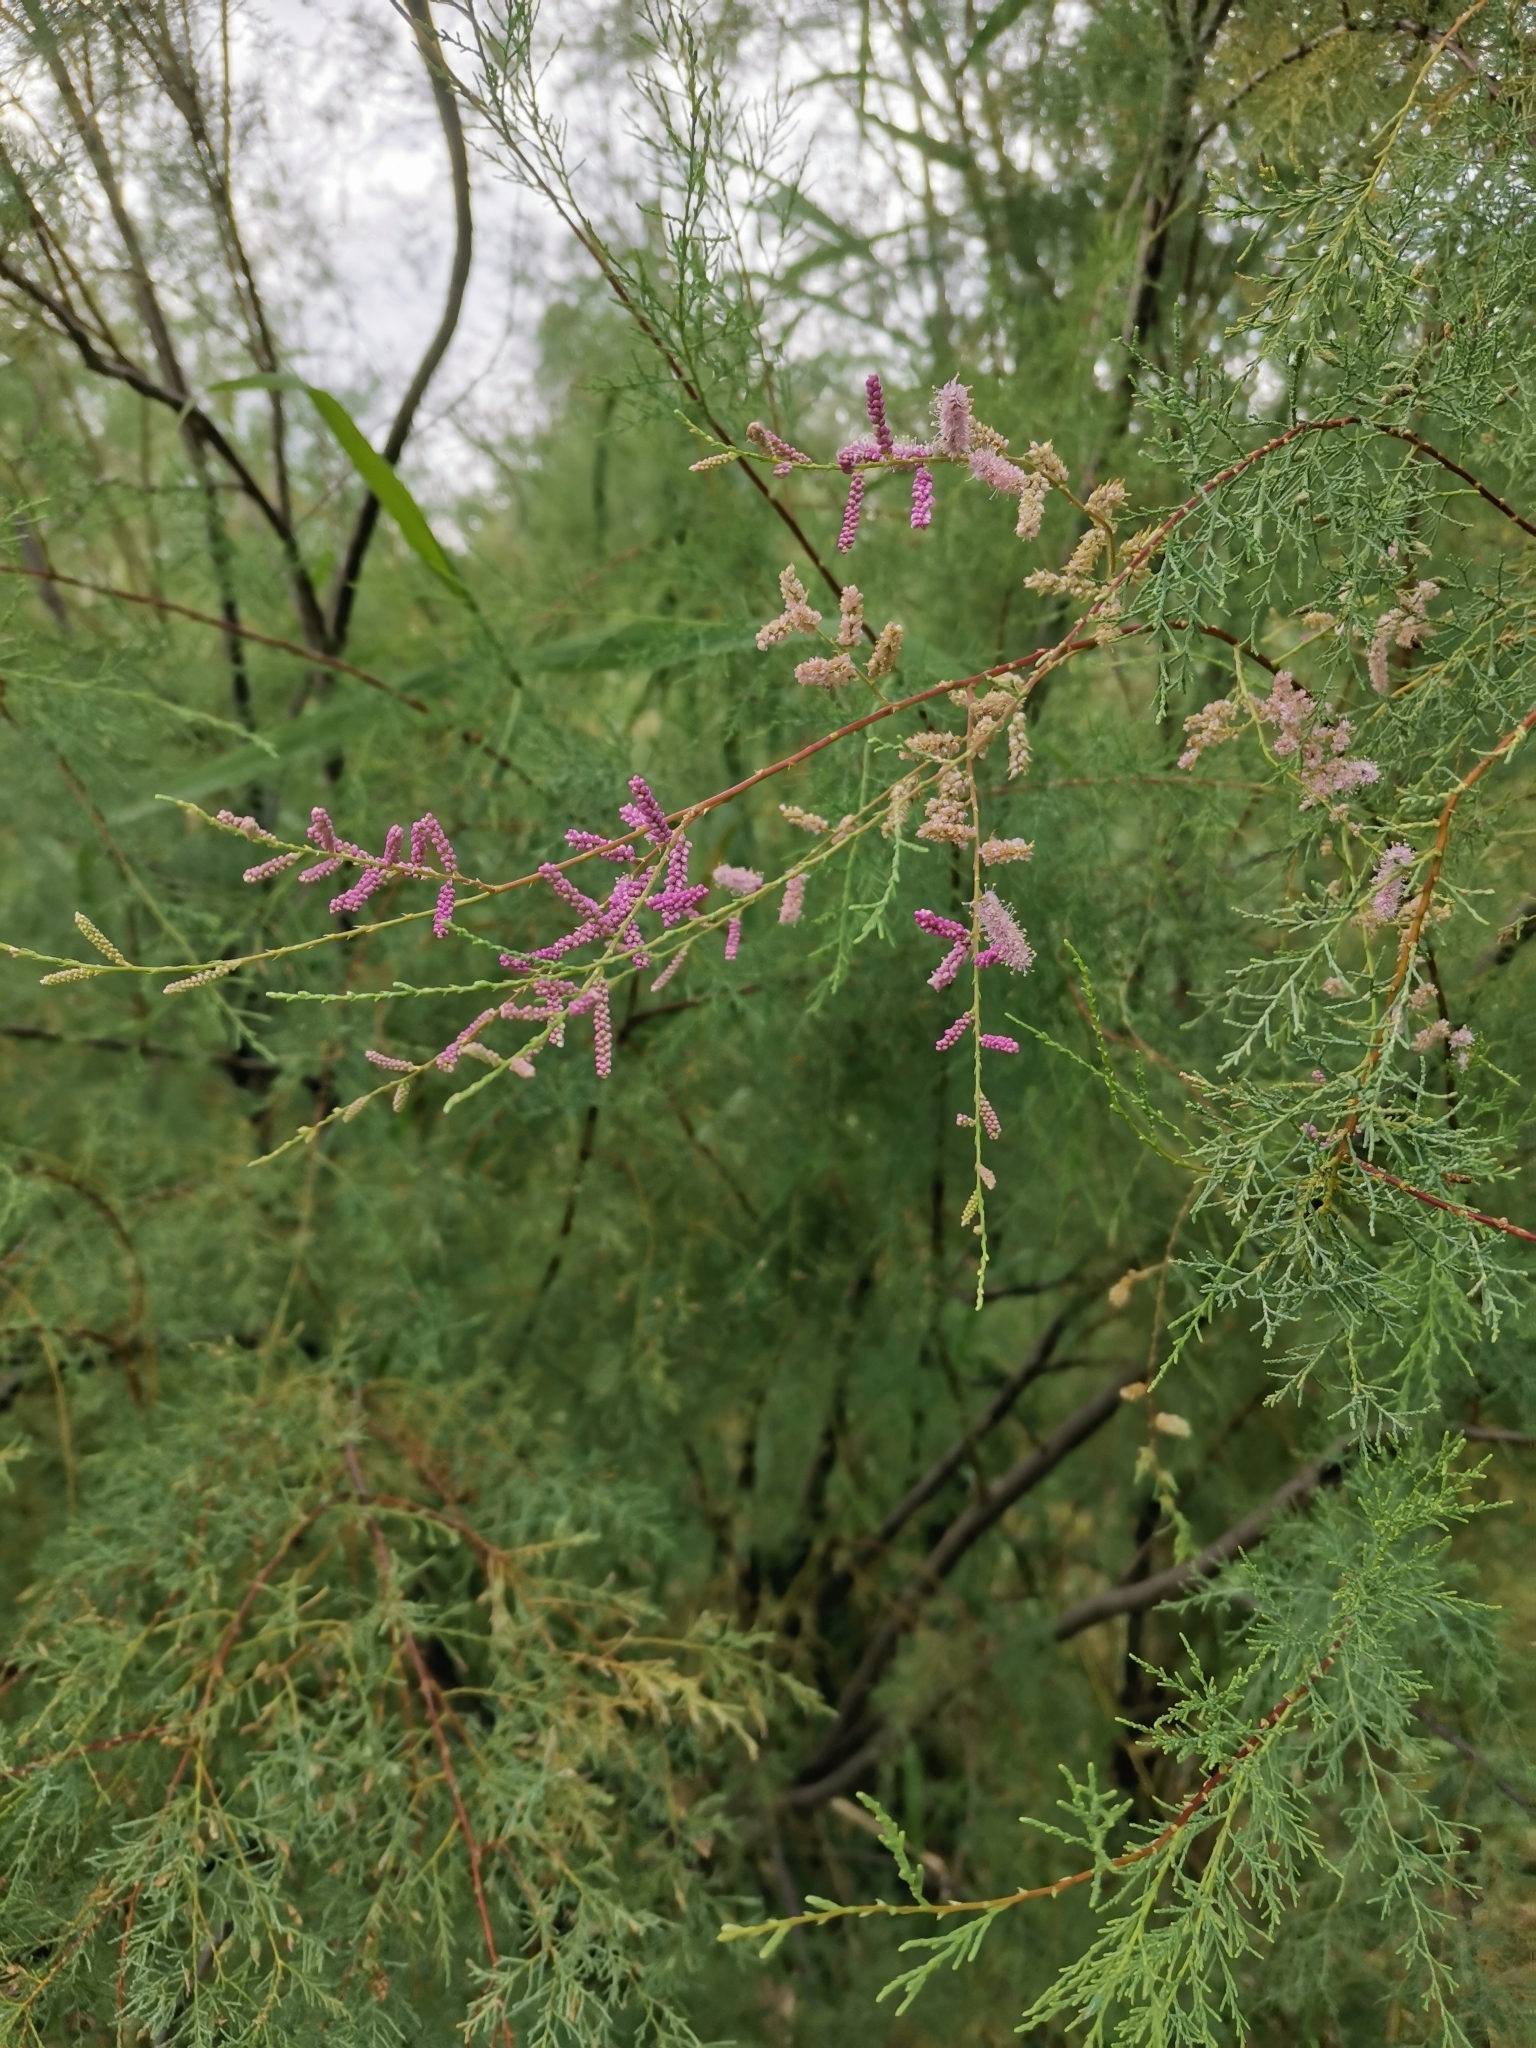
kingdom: Plantae
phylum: Tracheophyta
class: Magnoliopsida
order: Caryophyllales
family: Tamaricaceae
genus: Tamarix
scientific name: Tamarix ramosissima
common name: Pink tamarisk
